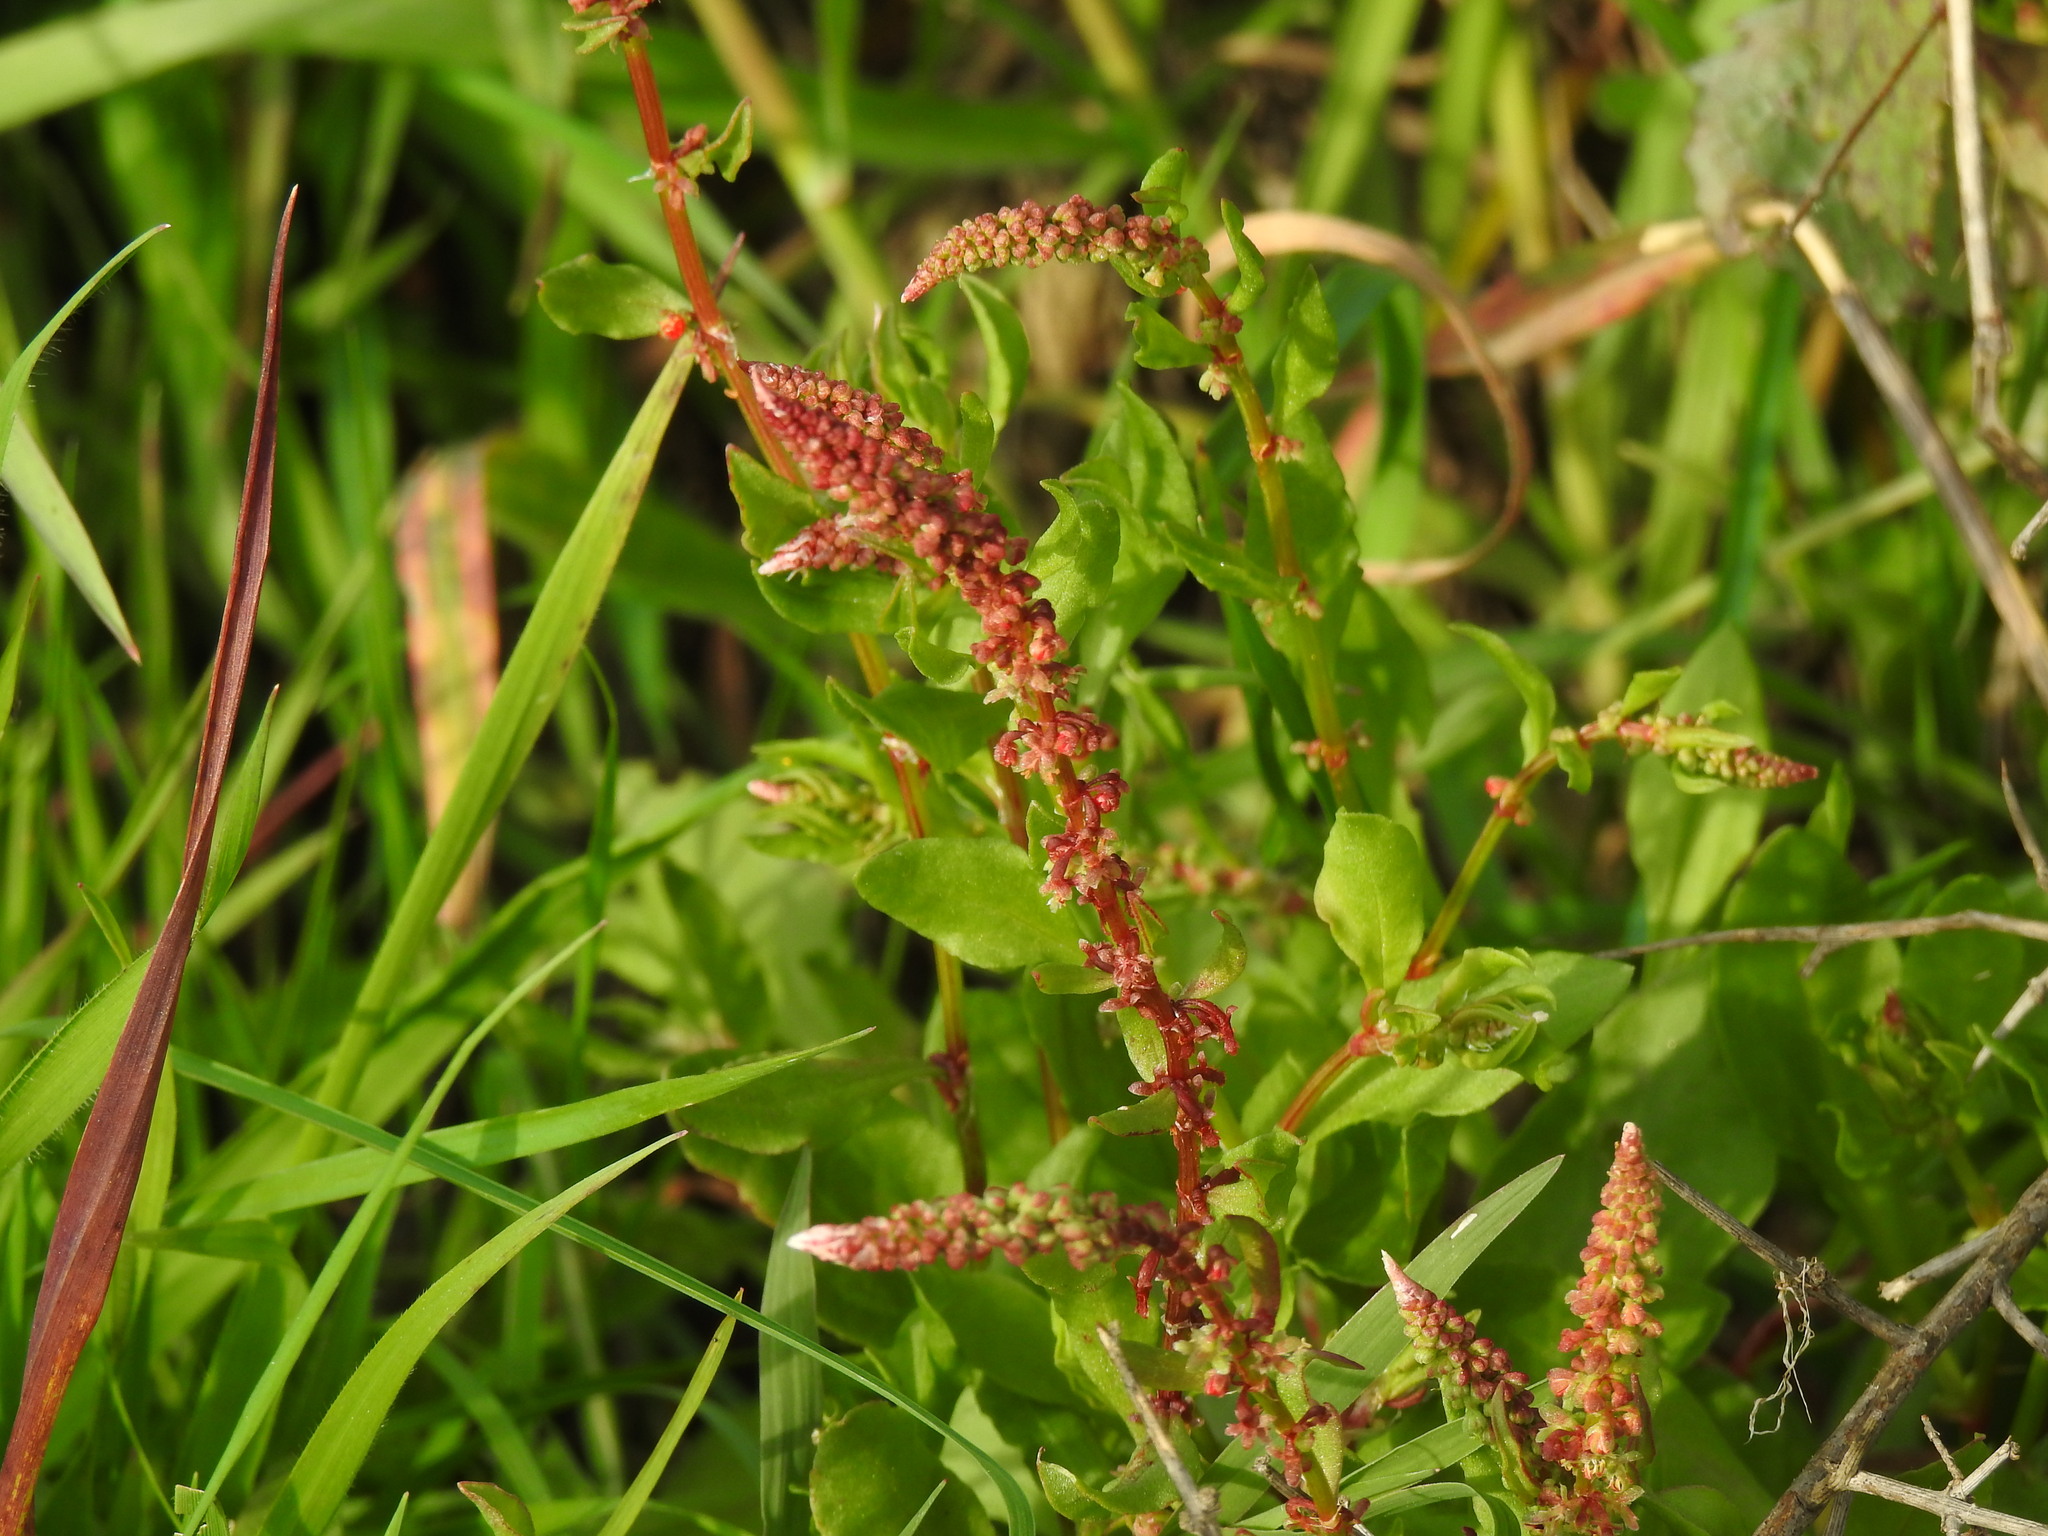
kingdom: Plantae
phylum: Tracheophyta
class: Magnoliopsida
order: Caryophyllales
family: Polygonaceae
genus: Rumex
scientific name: Rumex bucephalophorus
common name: Red dock
